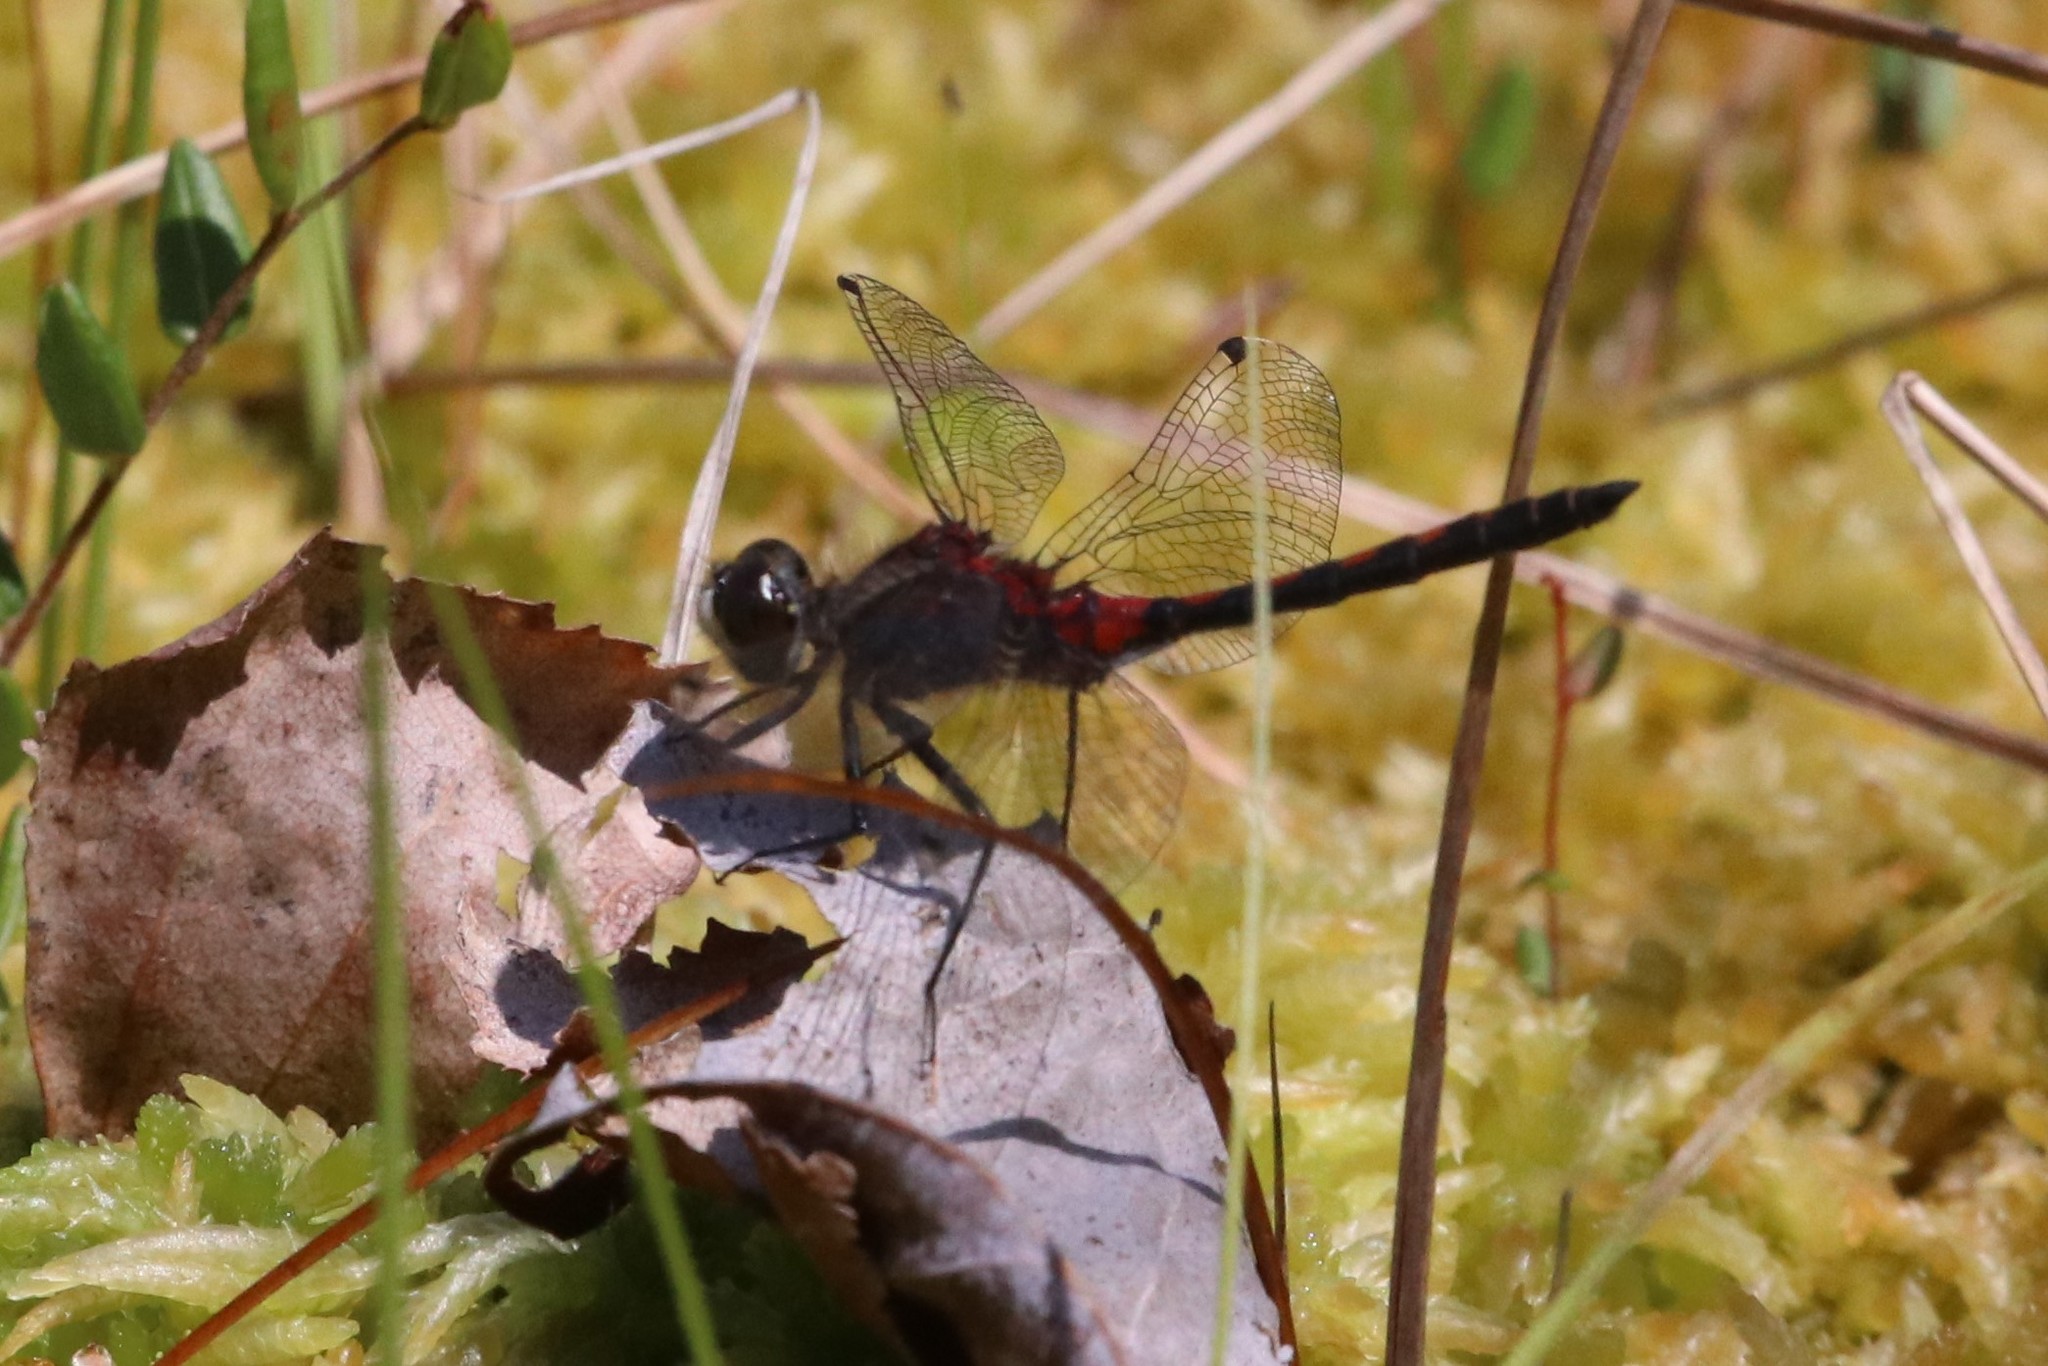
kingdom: Animalia
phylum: Arthropoda
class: Insecta
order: Odonata
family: Libellulidae
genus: Leucorrhinia
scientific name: Leucorrhinia hudsonica
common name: Hudsonian whiteface
